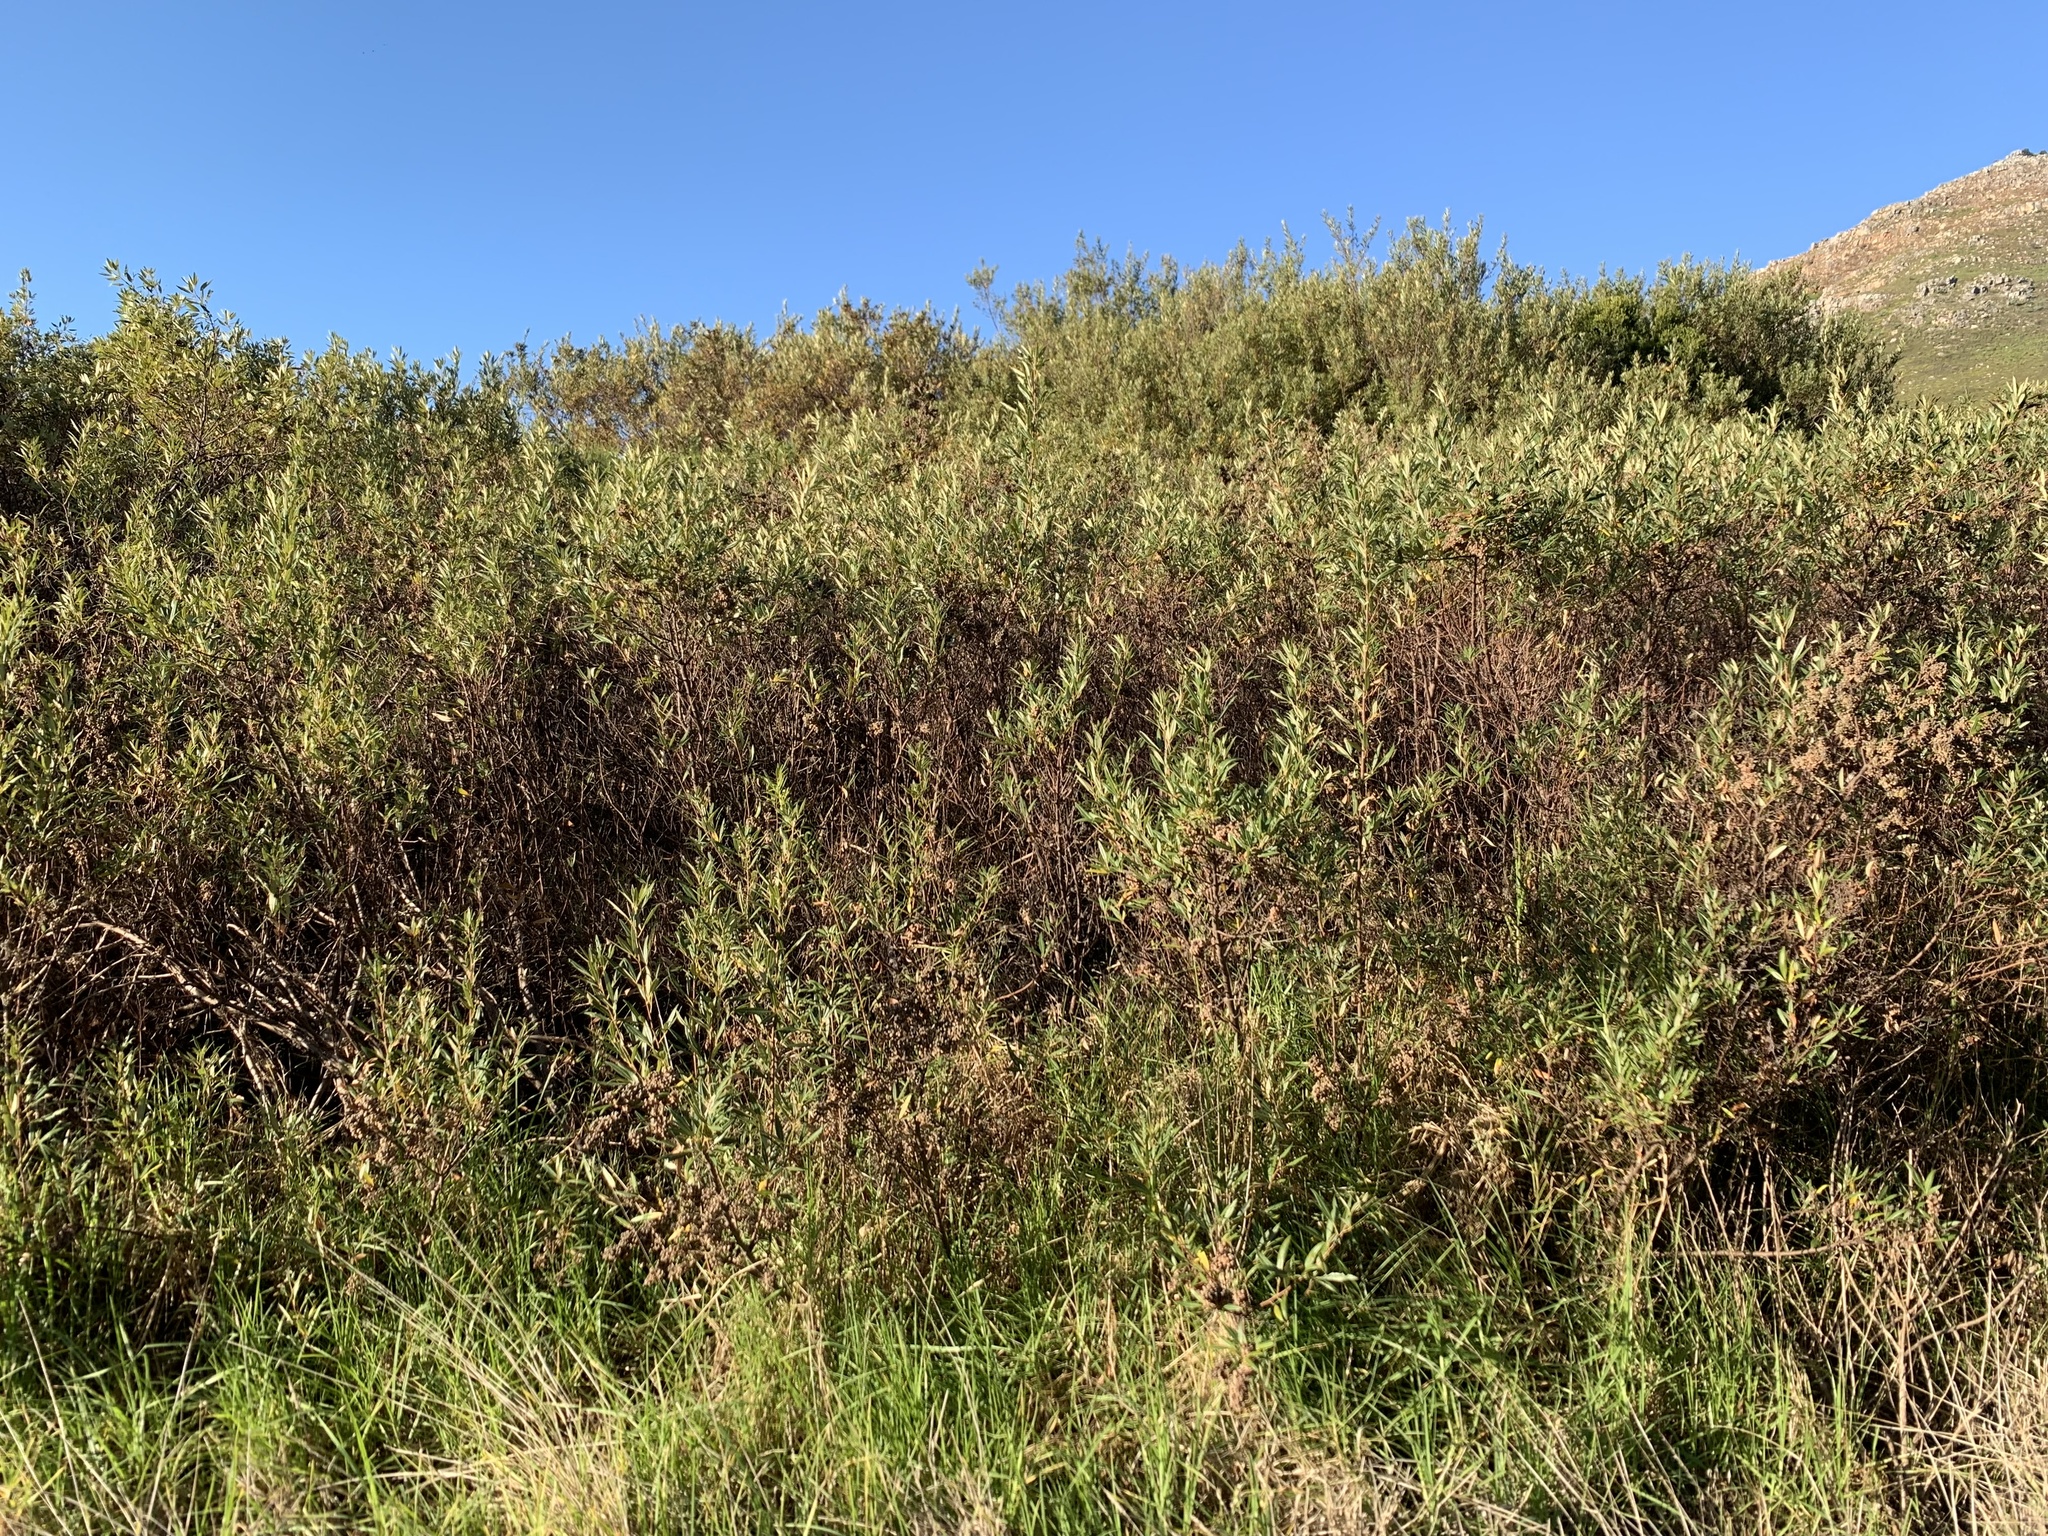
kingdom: Plantae
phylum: Tracheophyta
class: Magnoliopsida
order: Sapindales
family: Anacardiaceae
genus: Searsia
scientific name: Searsia angustifolia
